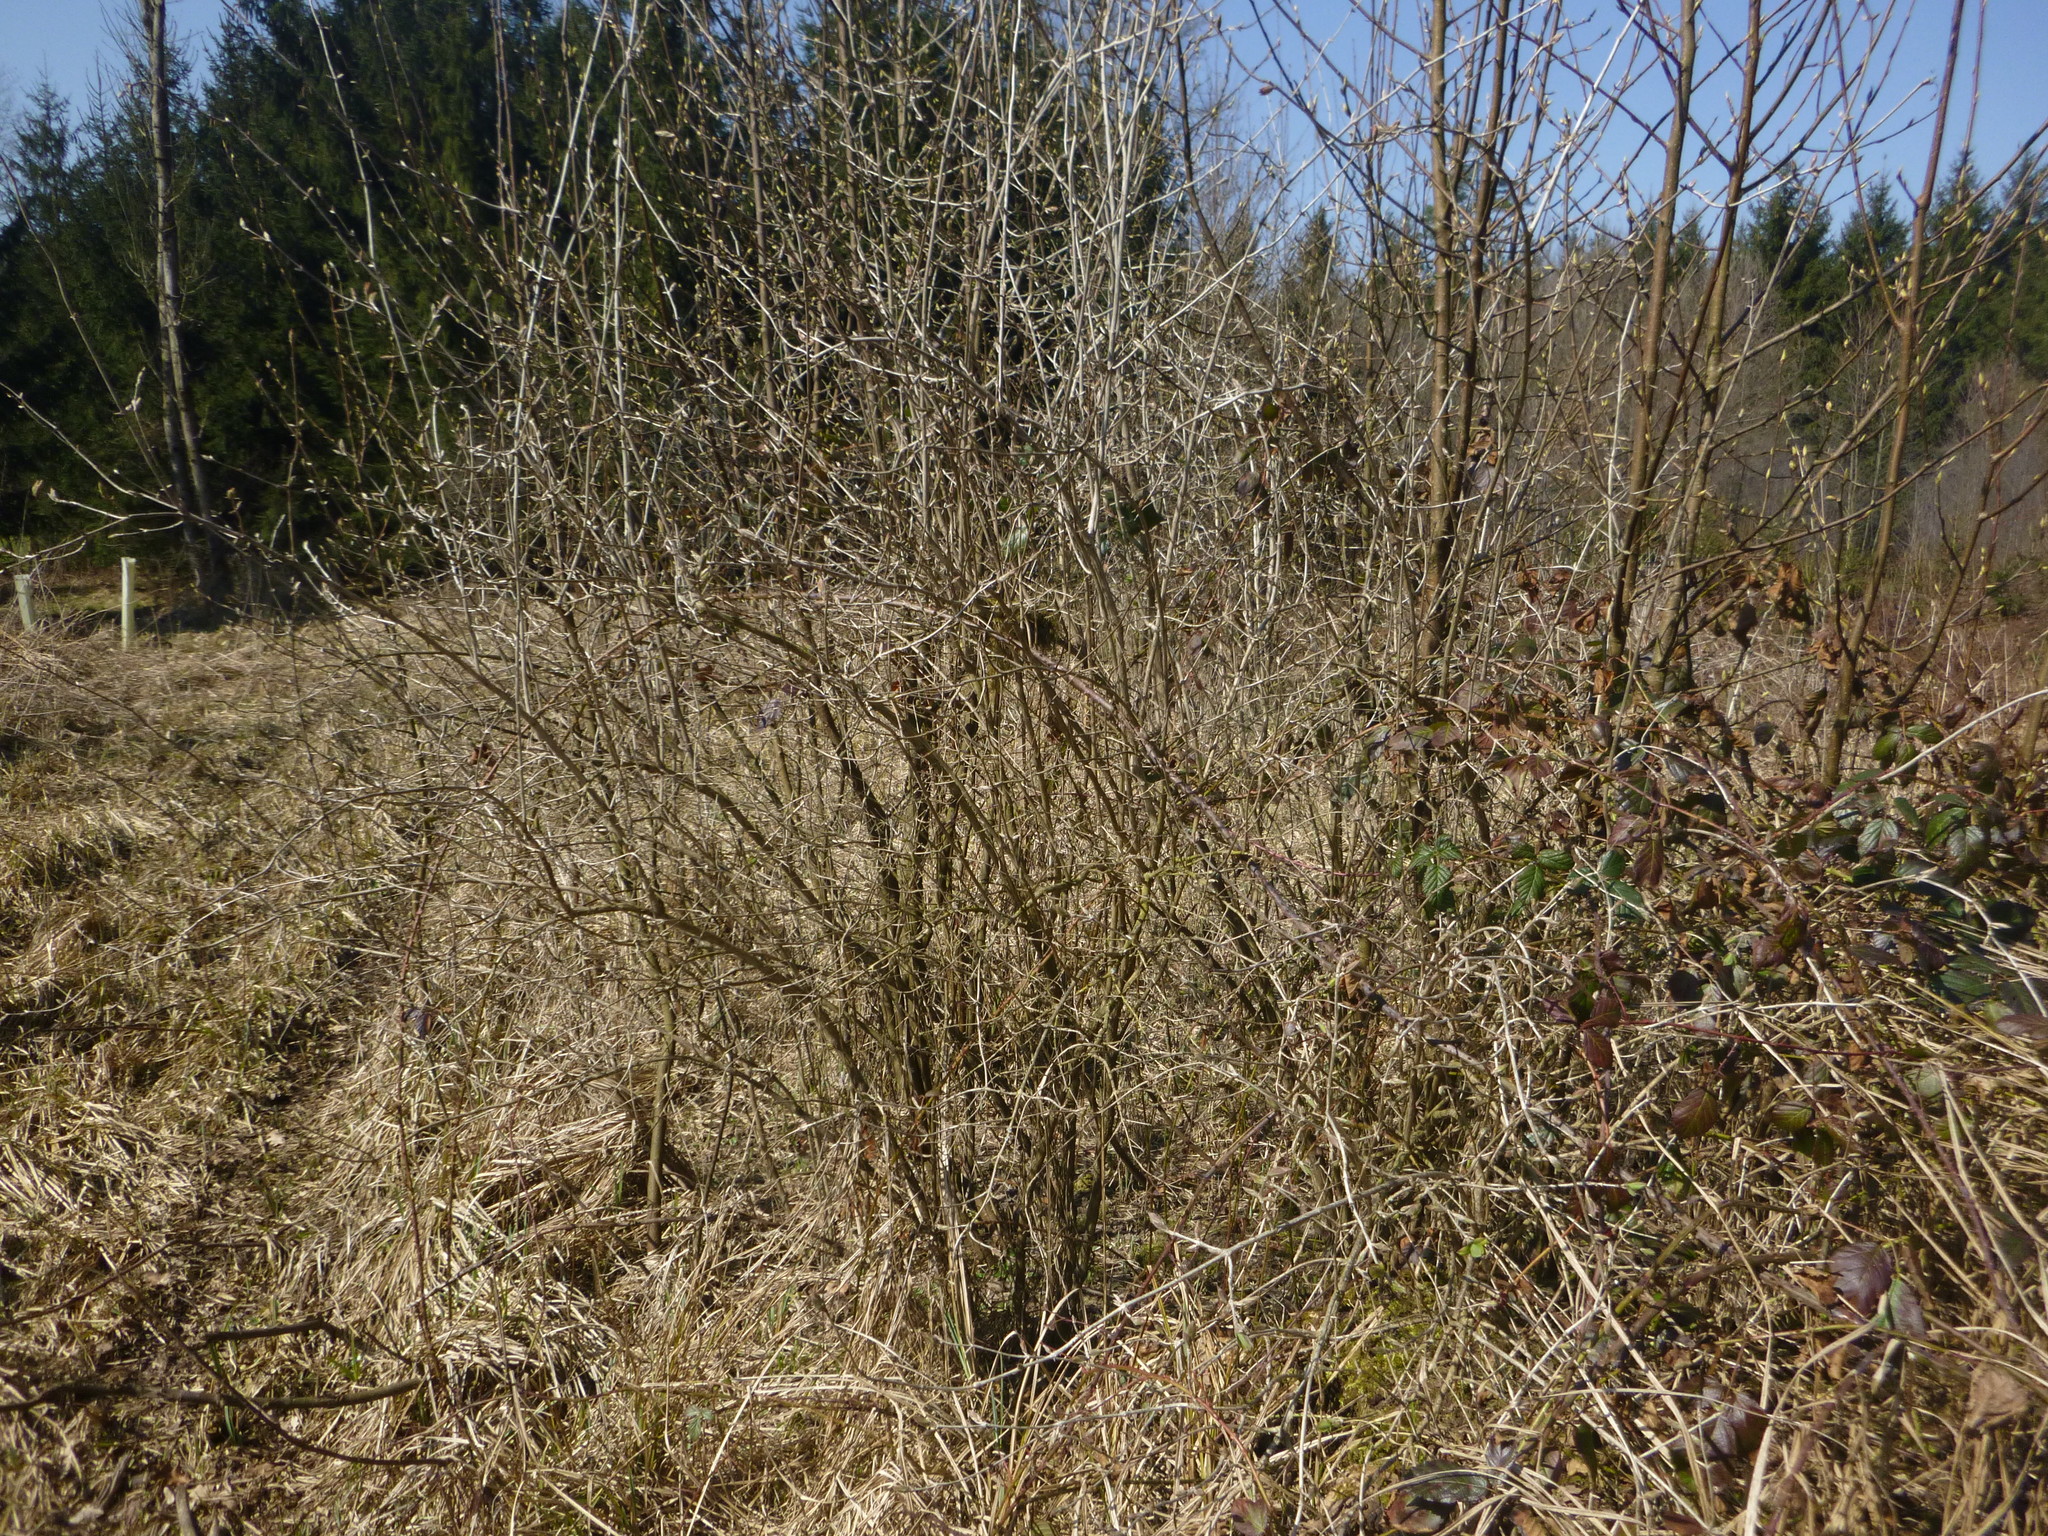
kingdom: Plantae
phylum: Tracheophyta
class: Magnoliopsida
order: Dipsacales
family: Caprifoliaceae
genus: Lonicera
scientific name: Lonicera xylosteum
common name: Fly honeysuckle
